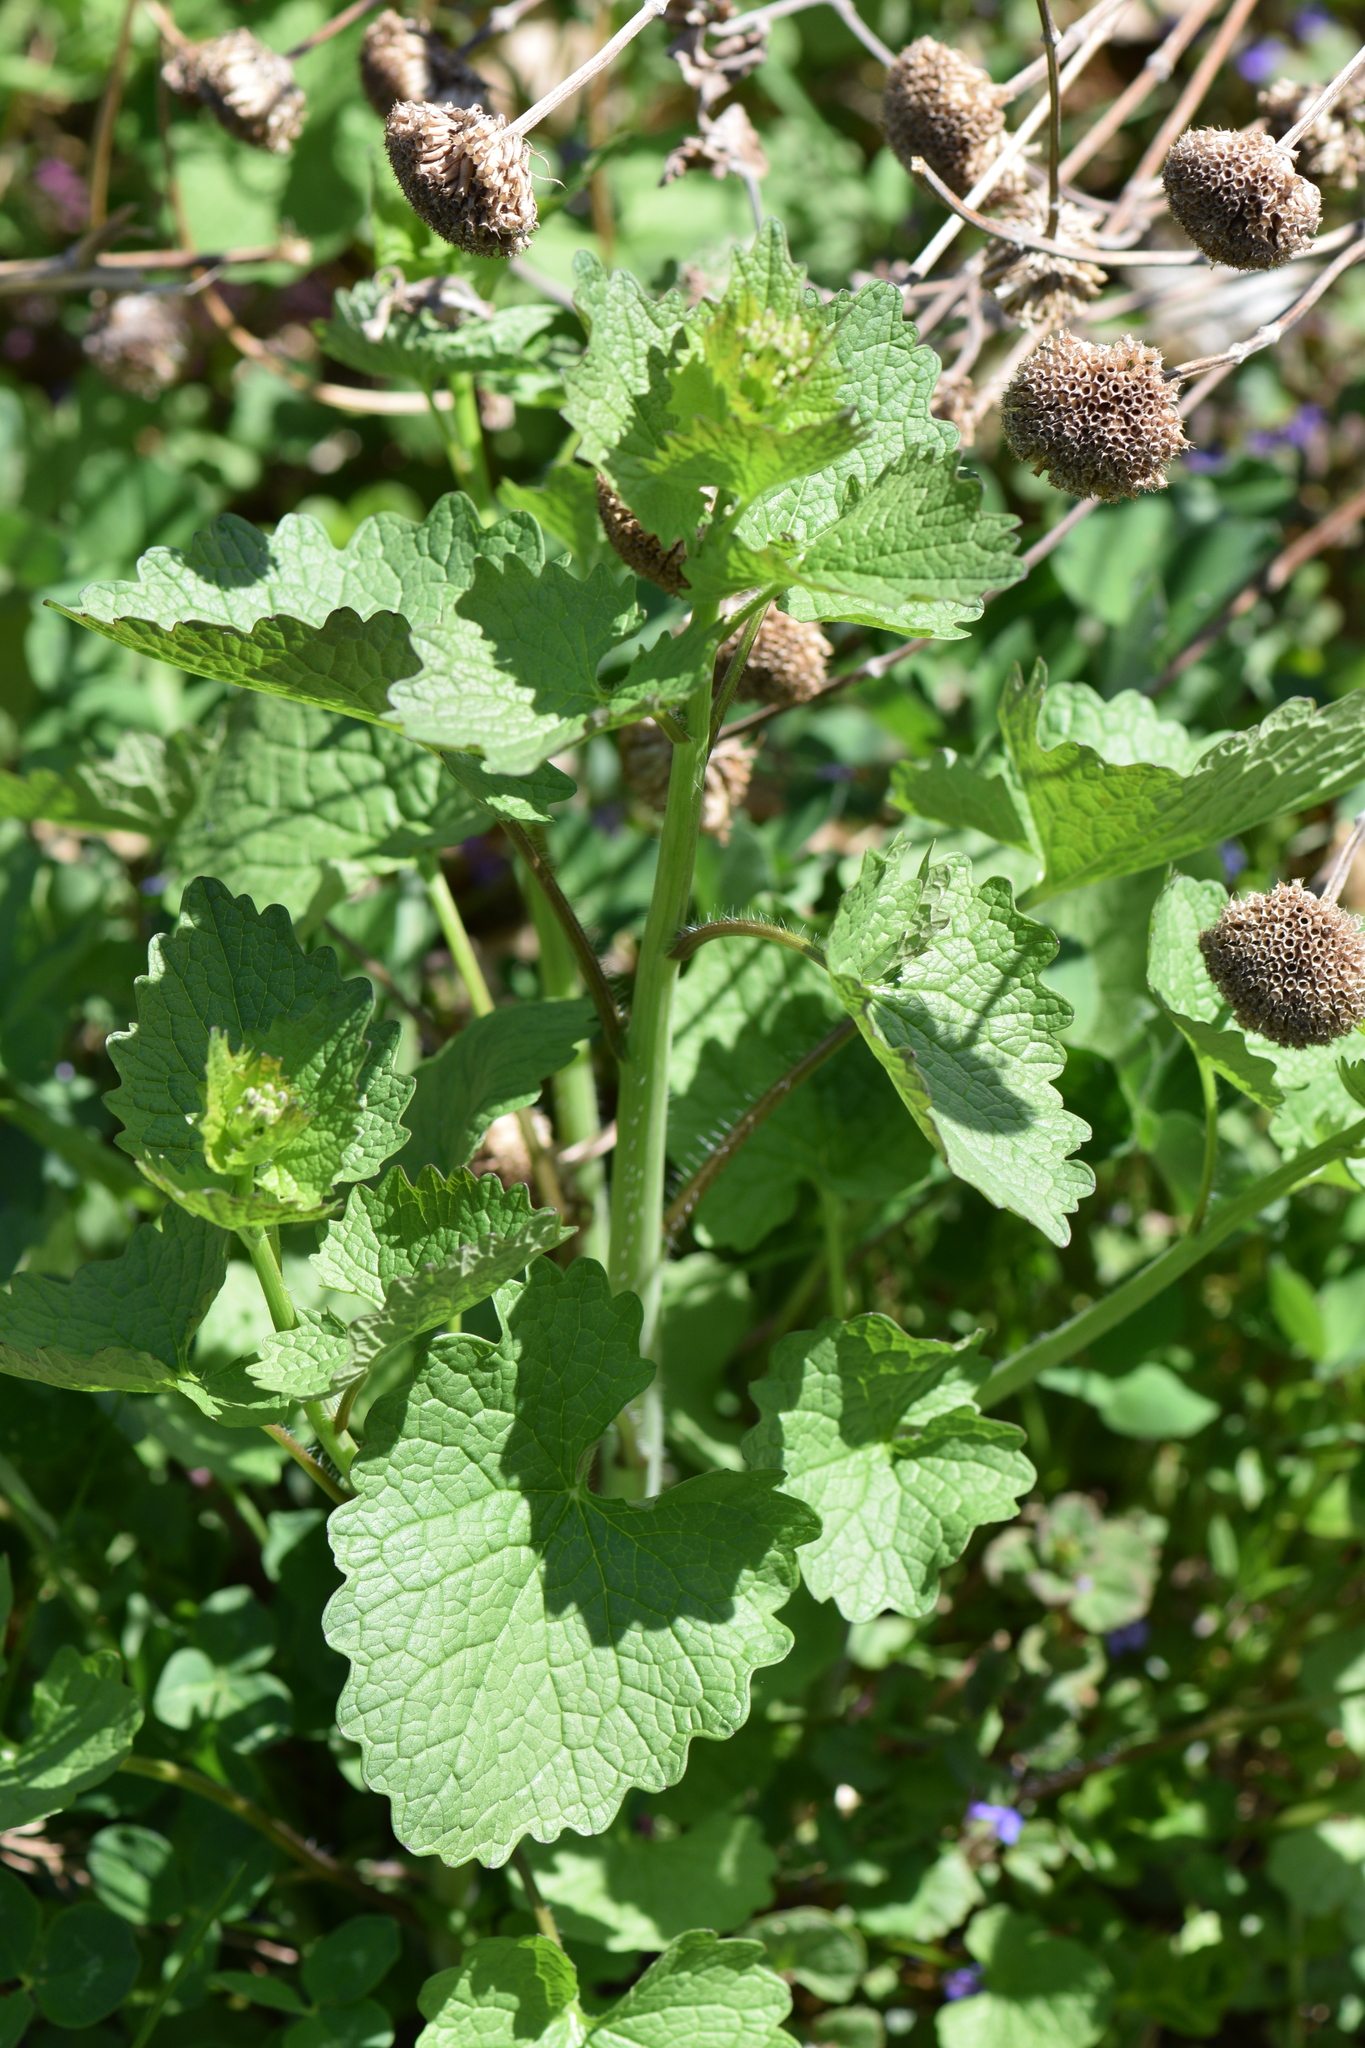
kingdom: Plantae
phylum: Tracheophyta
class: Magnoliopsida
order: Brassicales
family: Brassicaceae
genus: Alliaria
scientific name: Alliaria petiolata
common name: Garlic mustard
